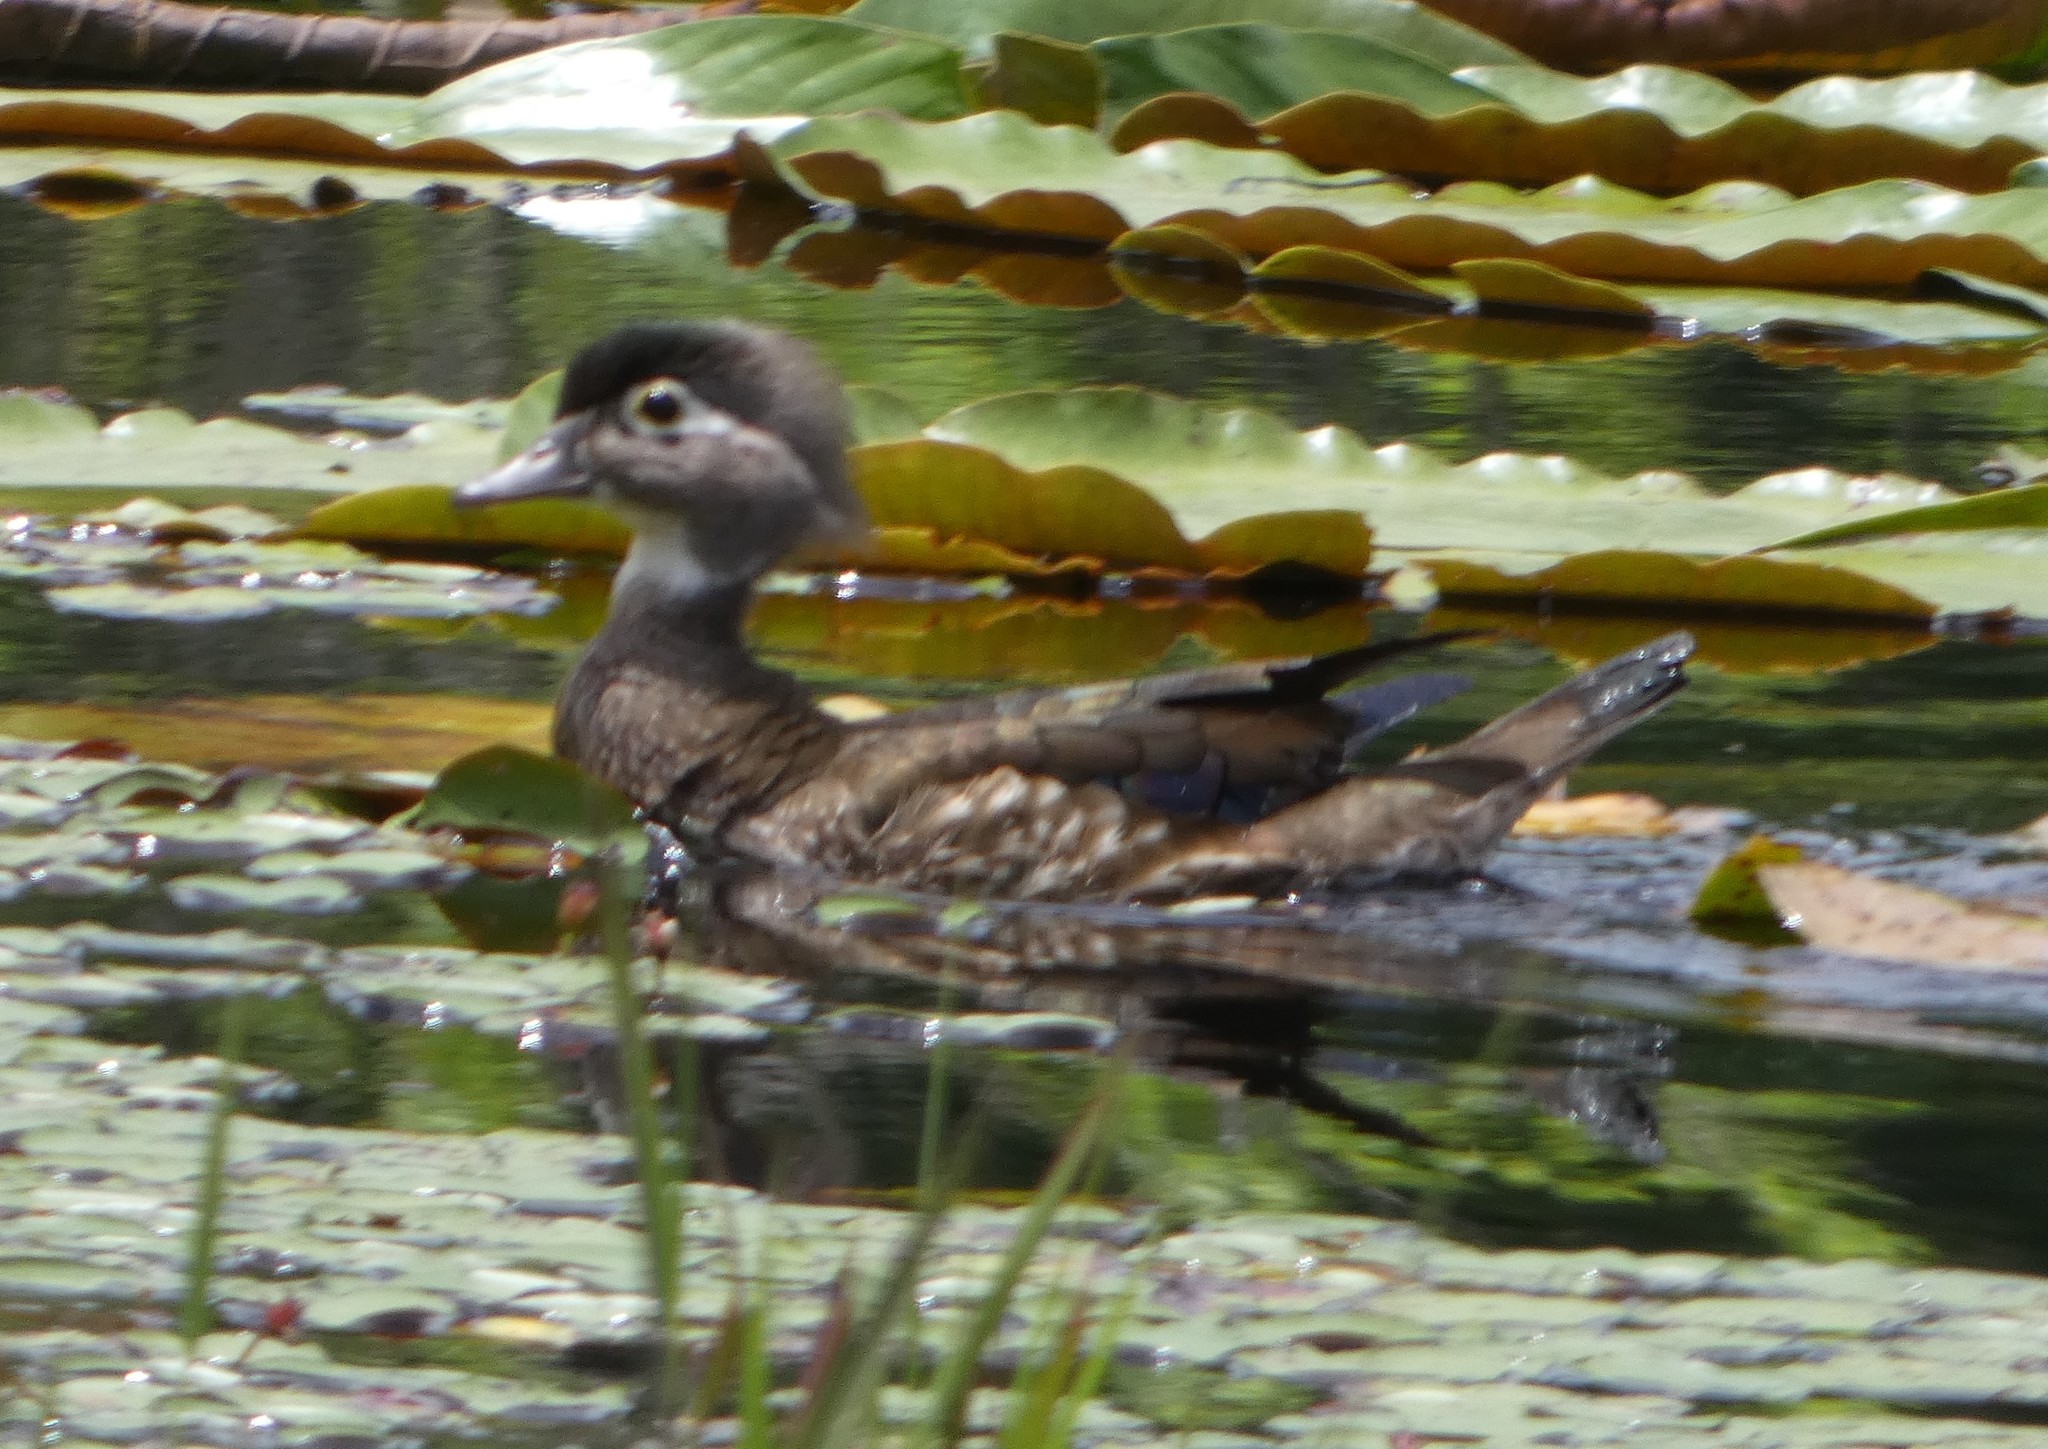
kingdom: Animalia
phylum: Chordata
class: Aves
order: Anseriformes
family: Anatidae
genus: Aix
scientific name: Aix sponsa
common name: Wood duck
